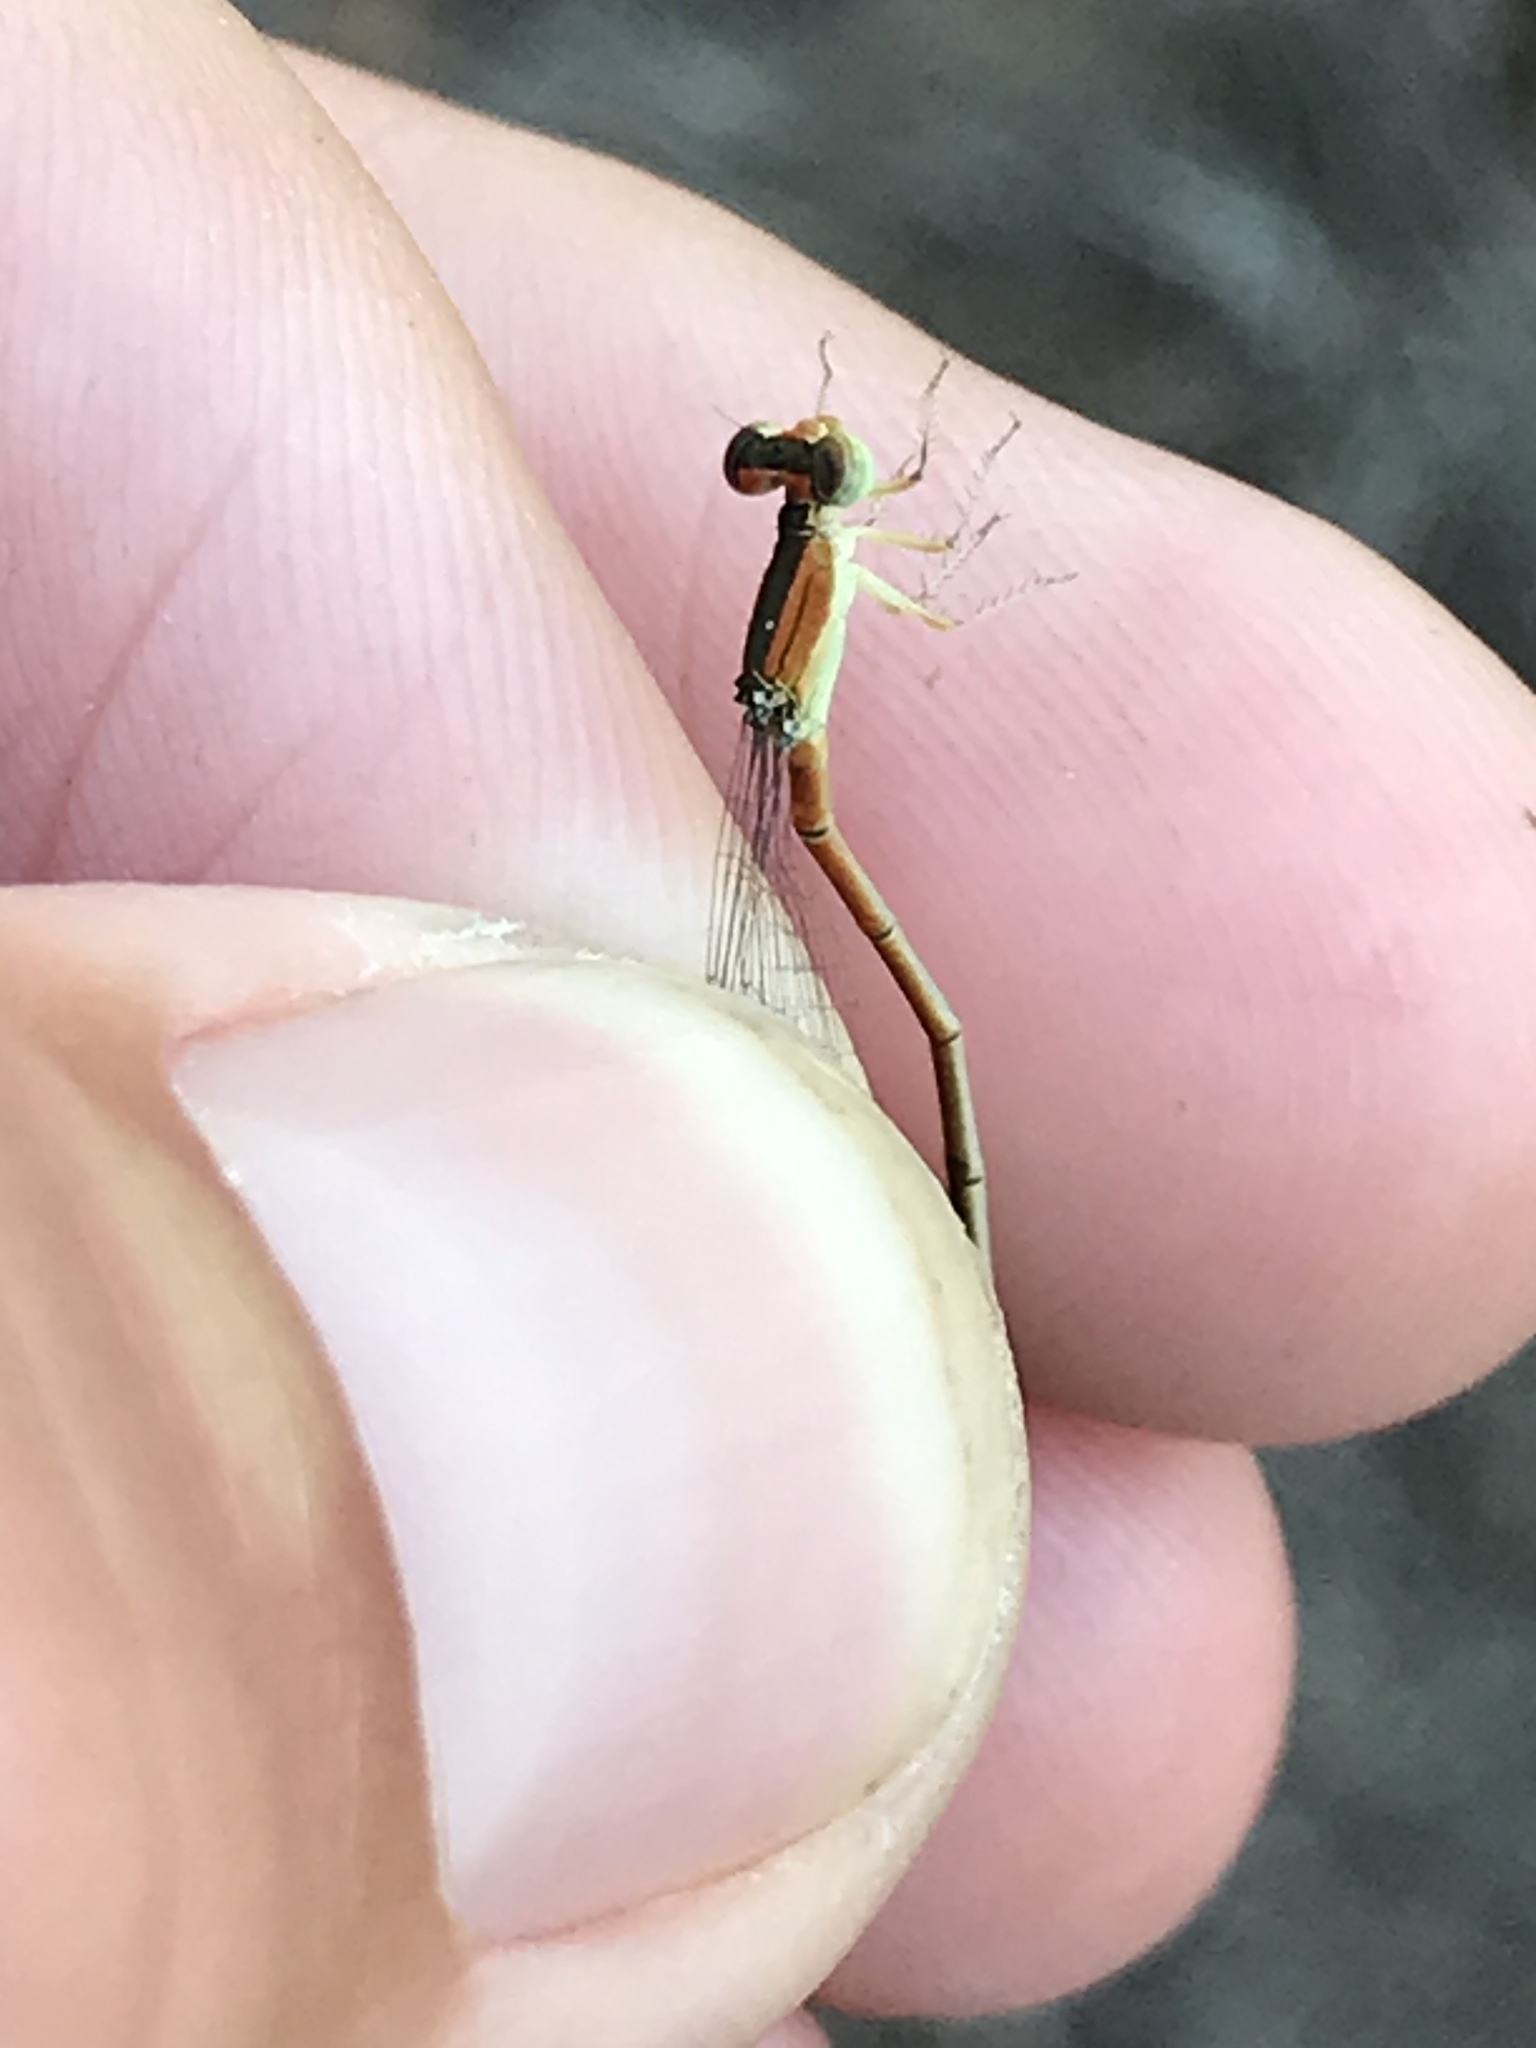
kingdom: Animalia
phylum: Arthropoda
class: Insecta
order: Odonata
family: Coenagrionidae
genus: Ischnura
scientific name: Ischnura hastata
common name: Citrine forktail
